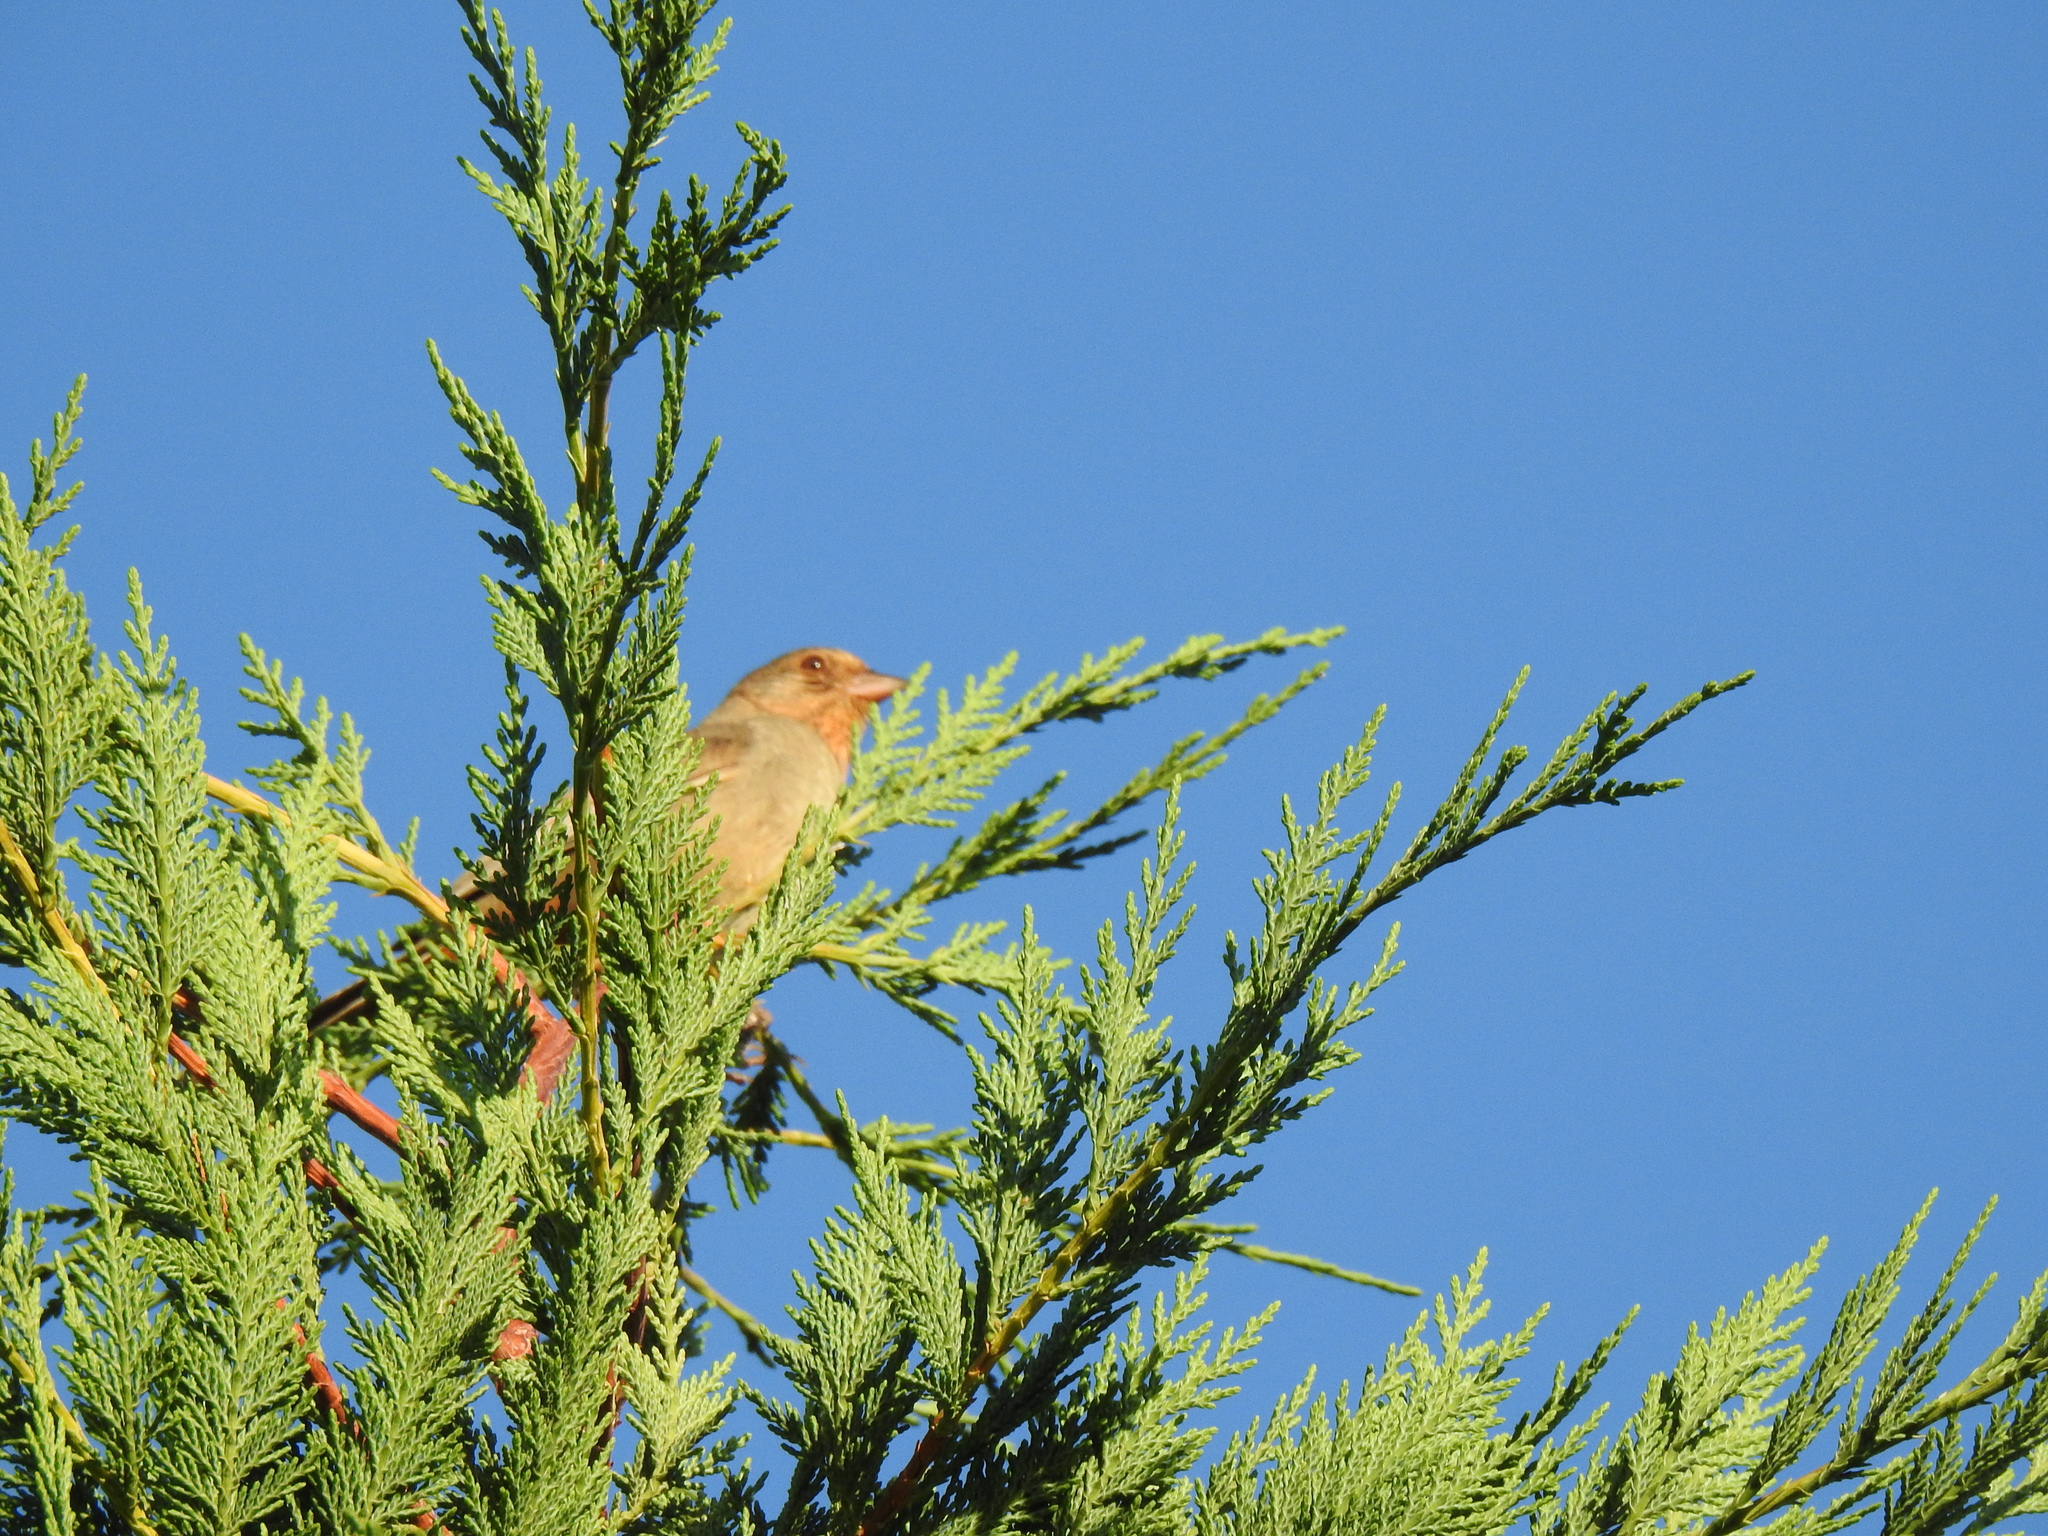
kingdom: Animalia
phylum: Chordata
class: Aves
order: Passeriformes
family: Passerellidae
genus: Melozone
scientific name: Melozone crissalis
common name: California towhee
